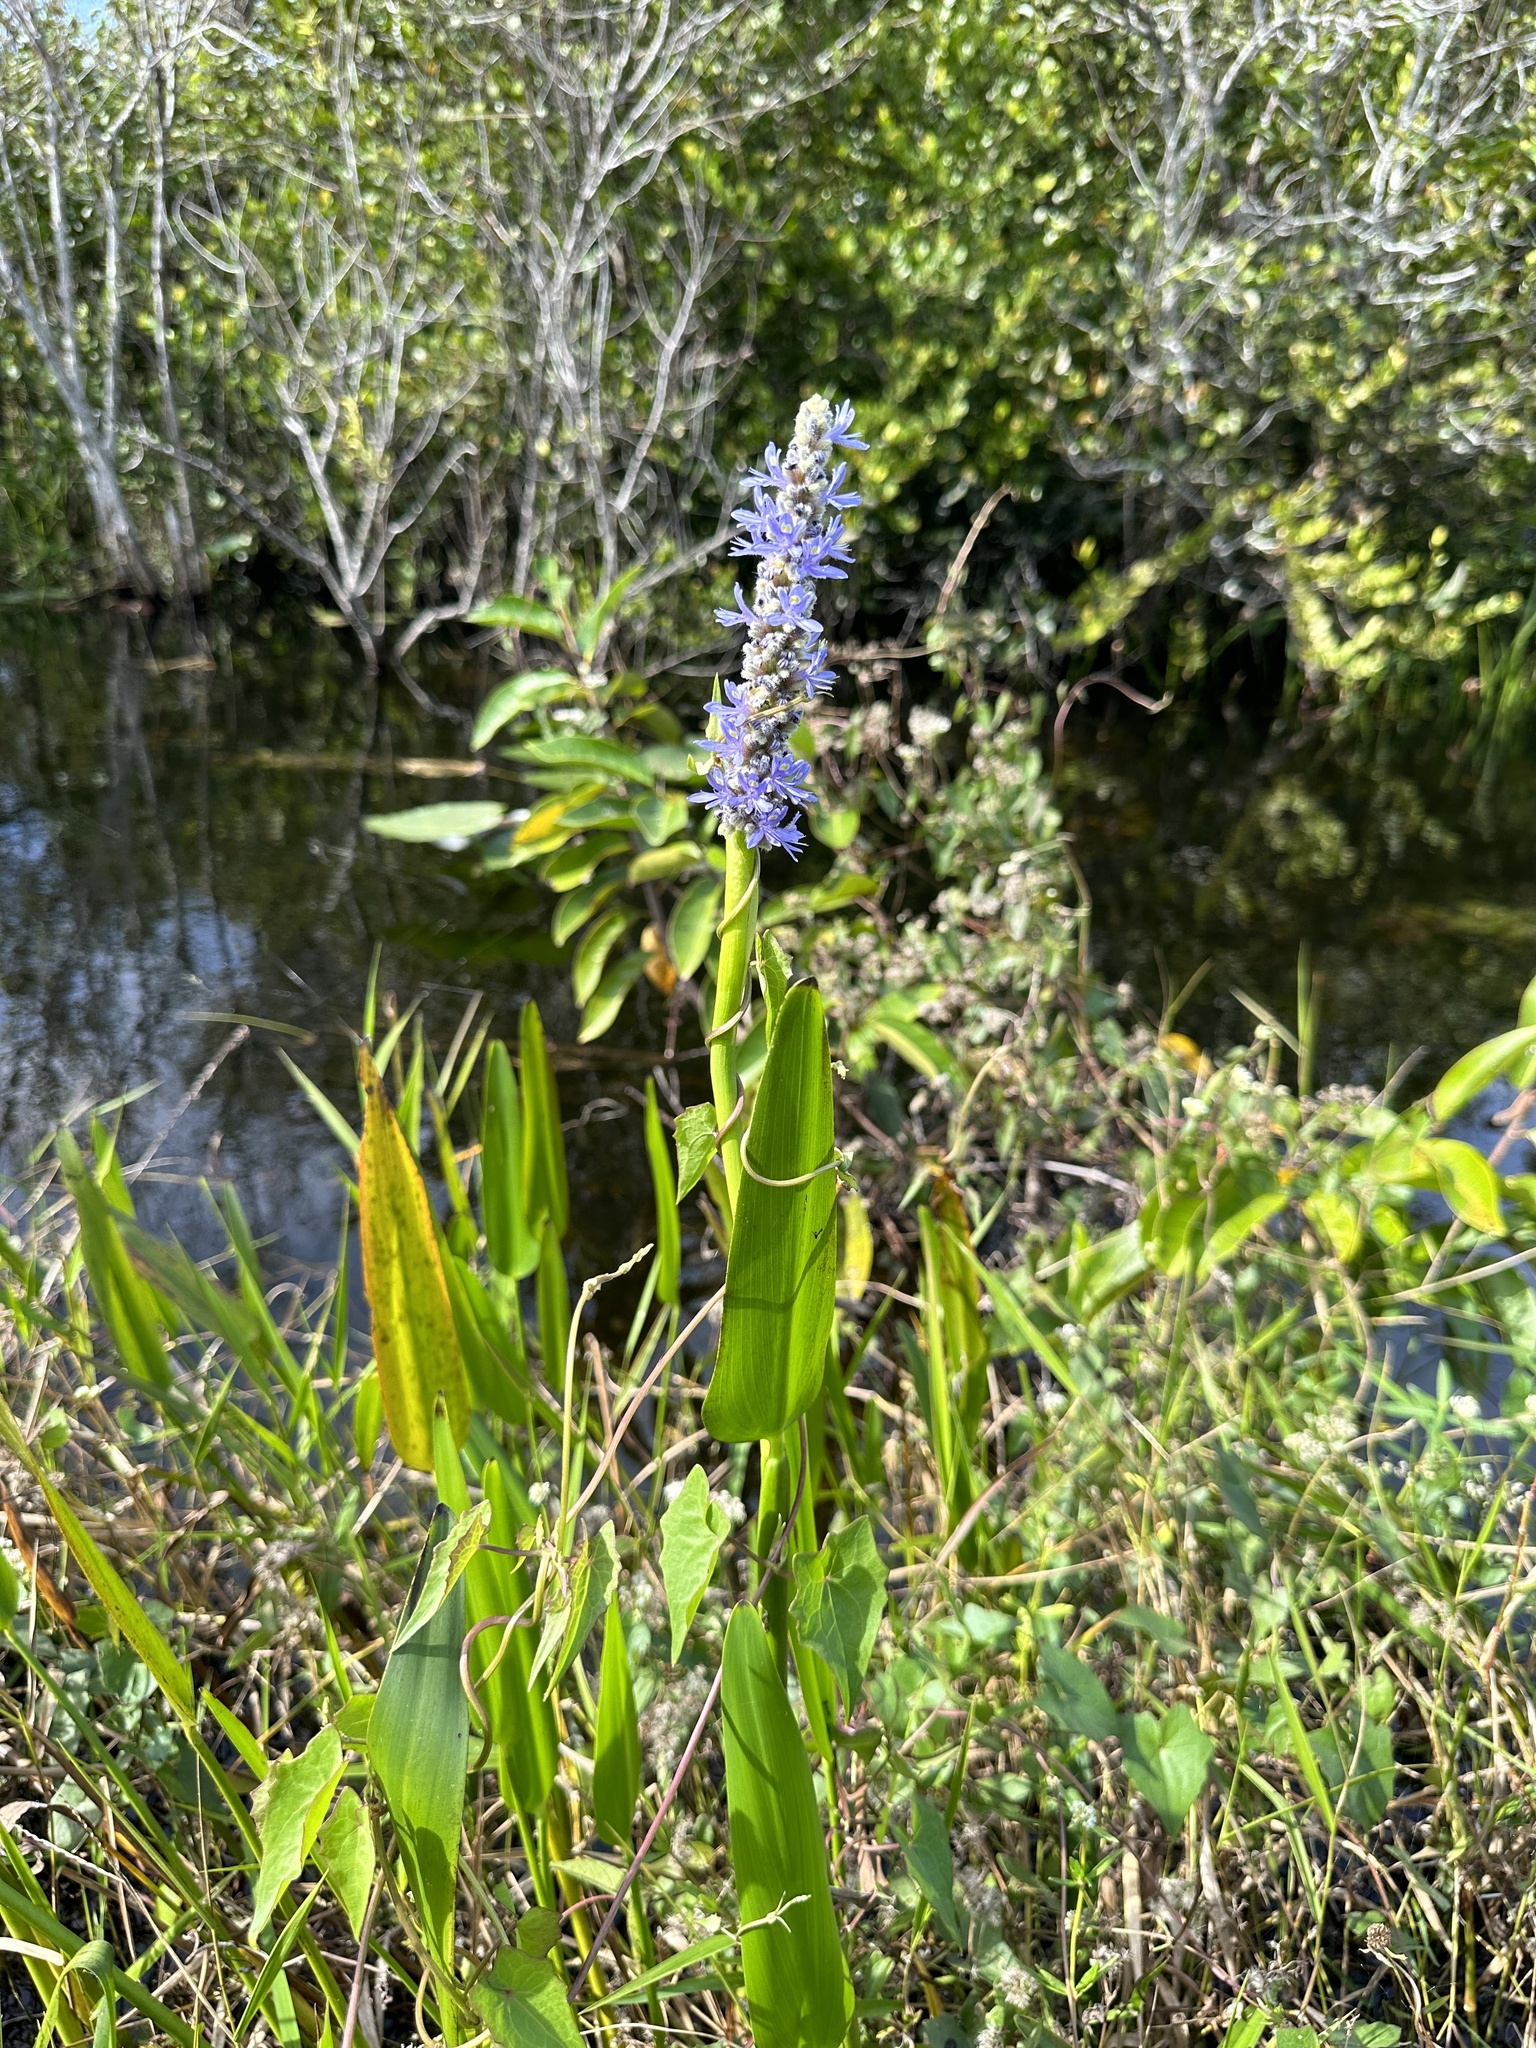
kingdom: Plantae
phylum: Tracheophyta
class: Liliopsida
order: Commelinales
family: Pontederiaceae
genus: Pontederia
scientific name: Pontederia cordata
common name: Pickerelweed
